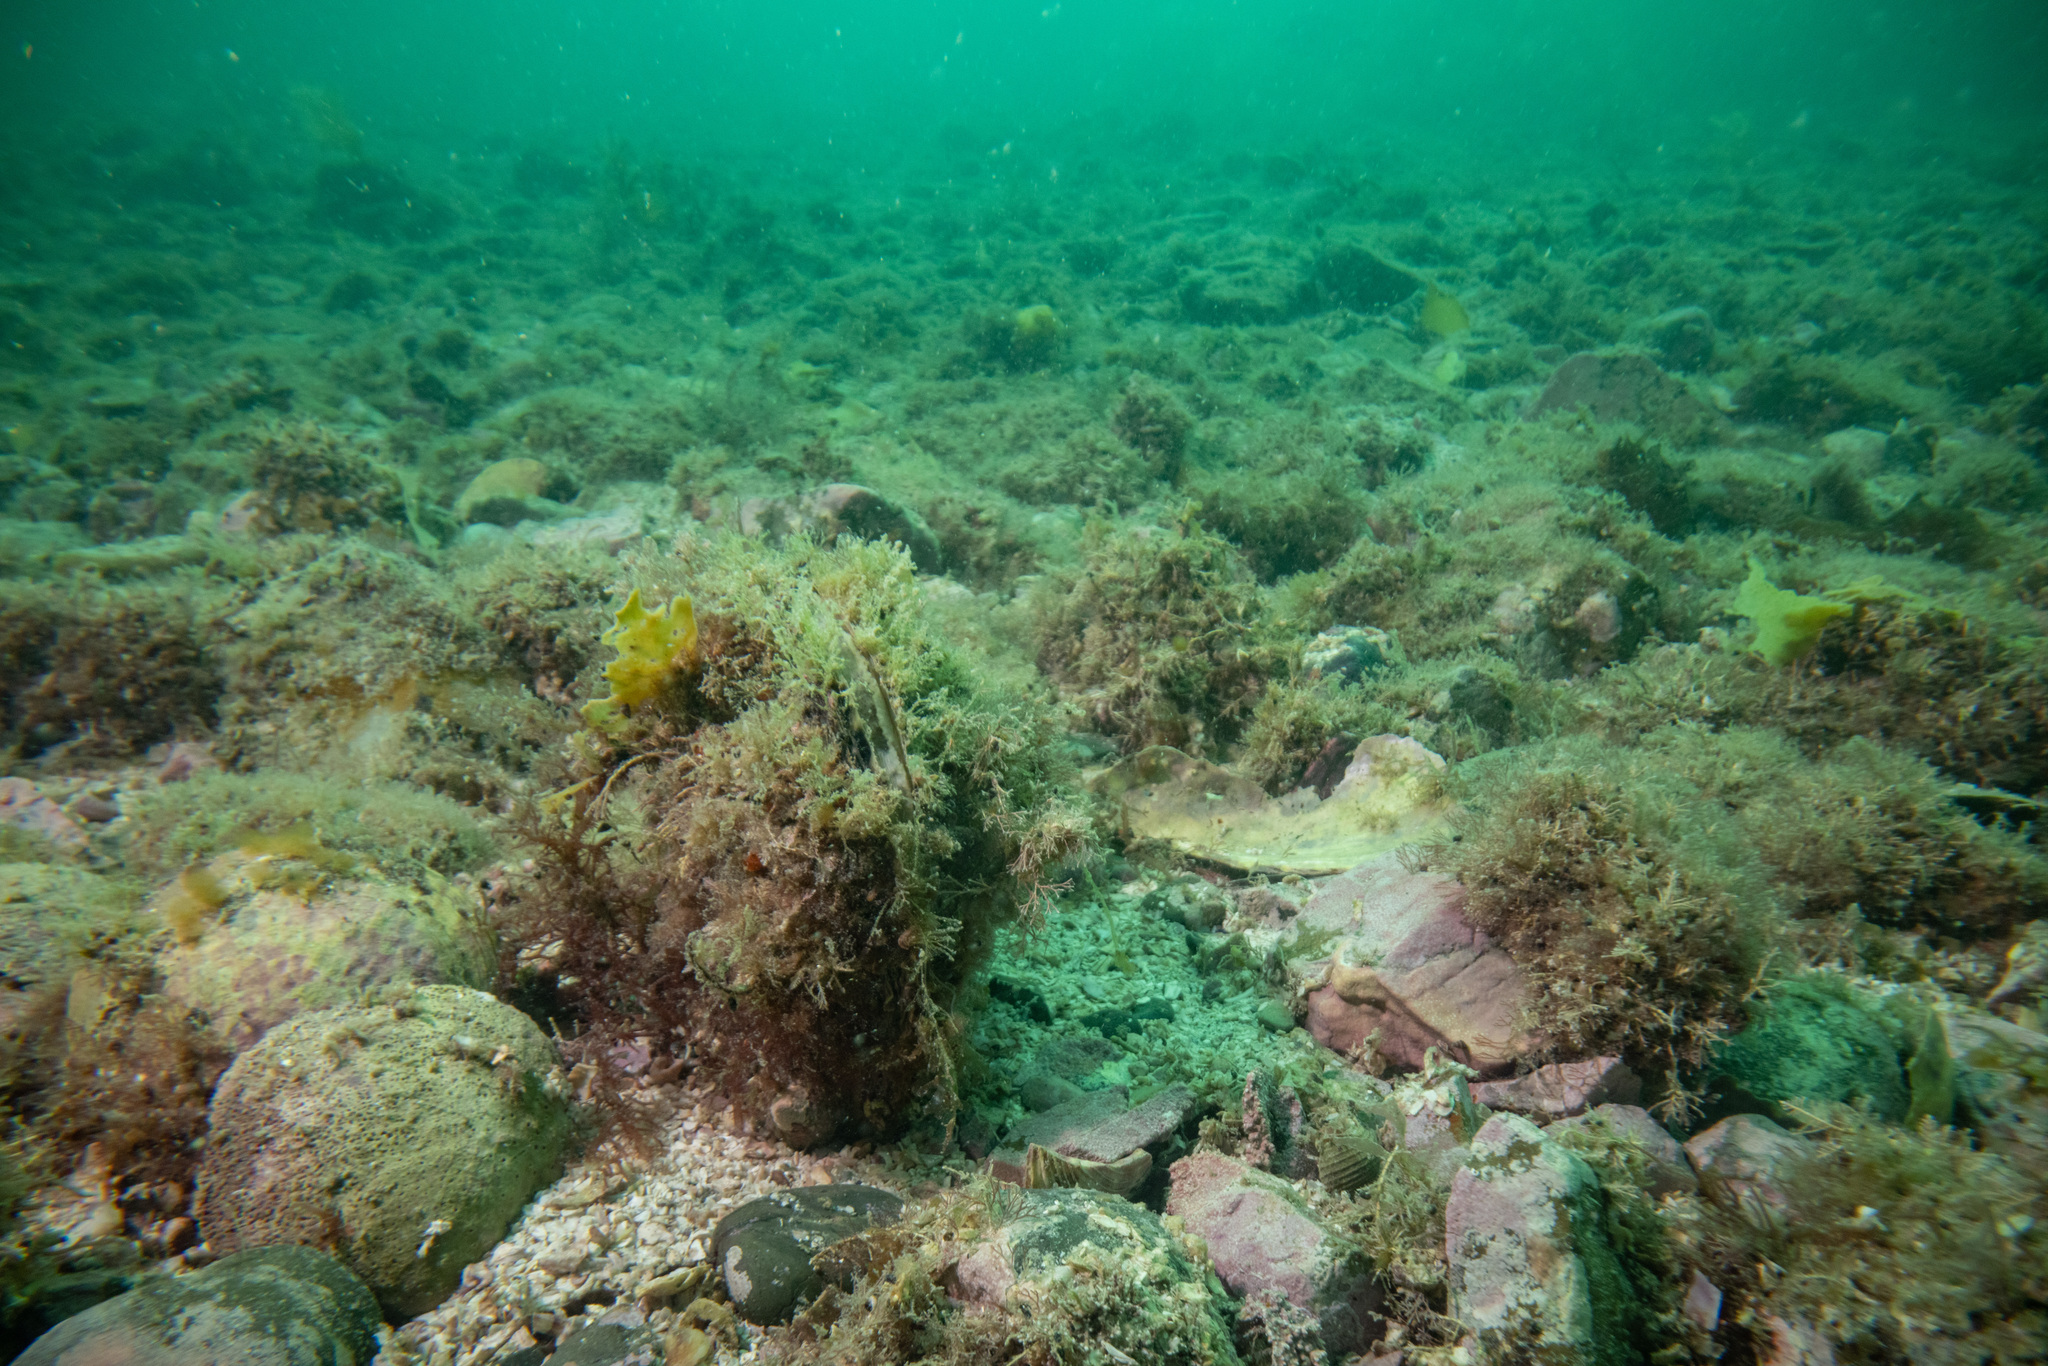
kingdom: Animalia
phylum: Mollusca
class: Bivalvia
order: Ostreida
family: Pinnidae
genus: Atrina
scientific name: Atrina zelandica
